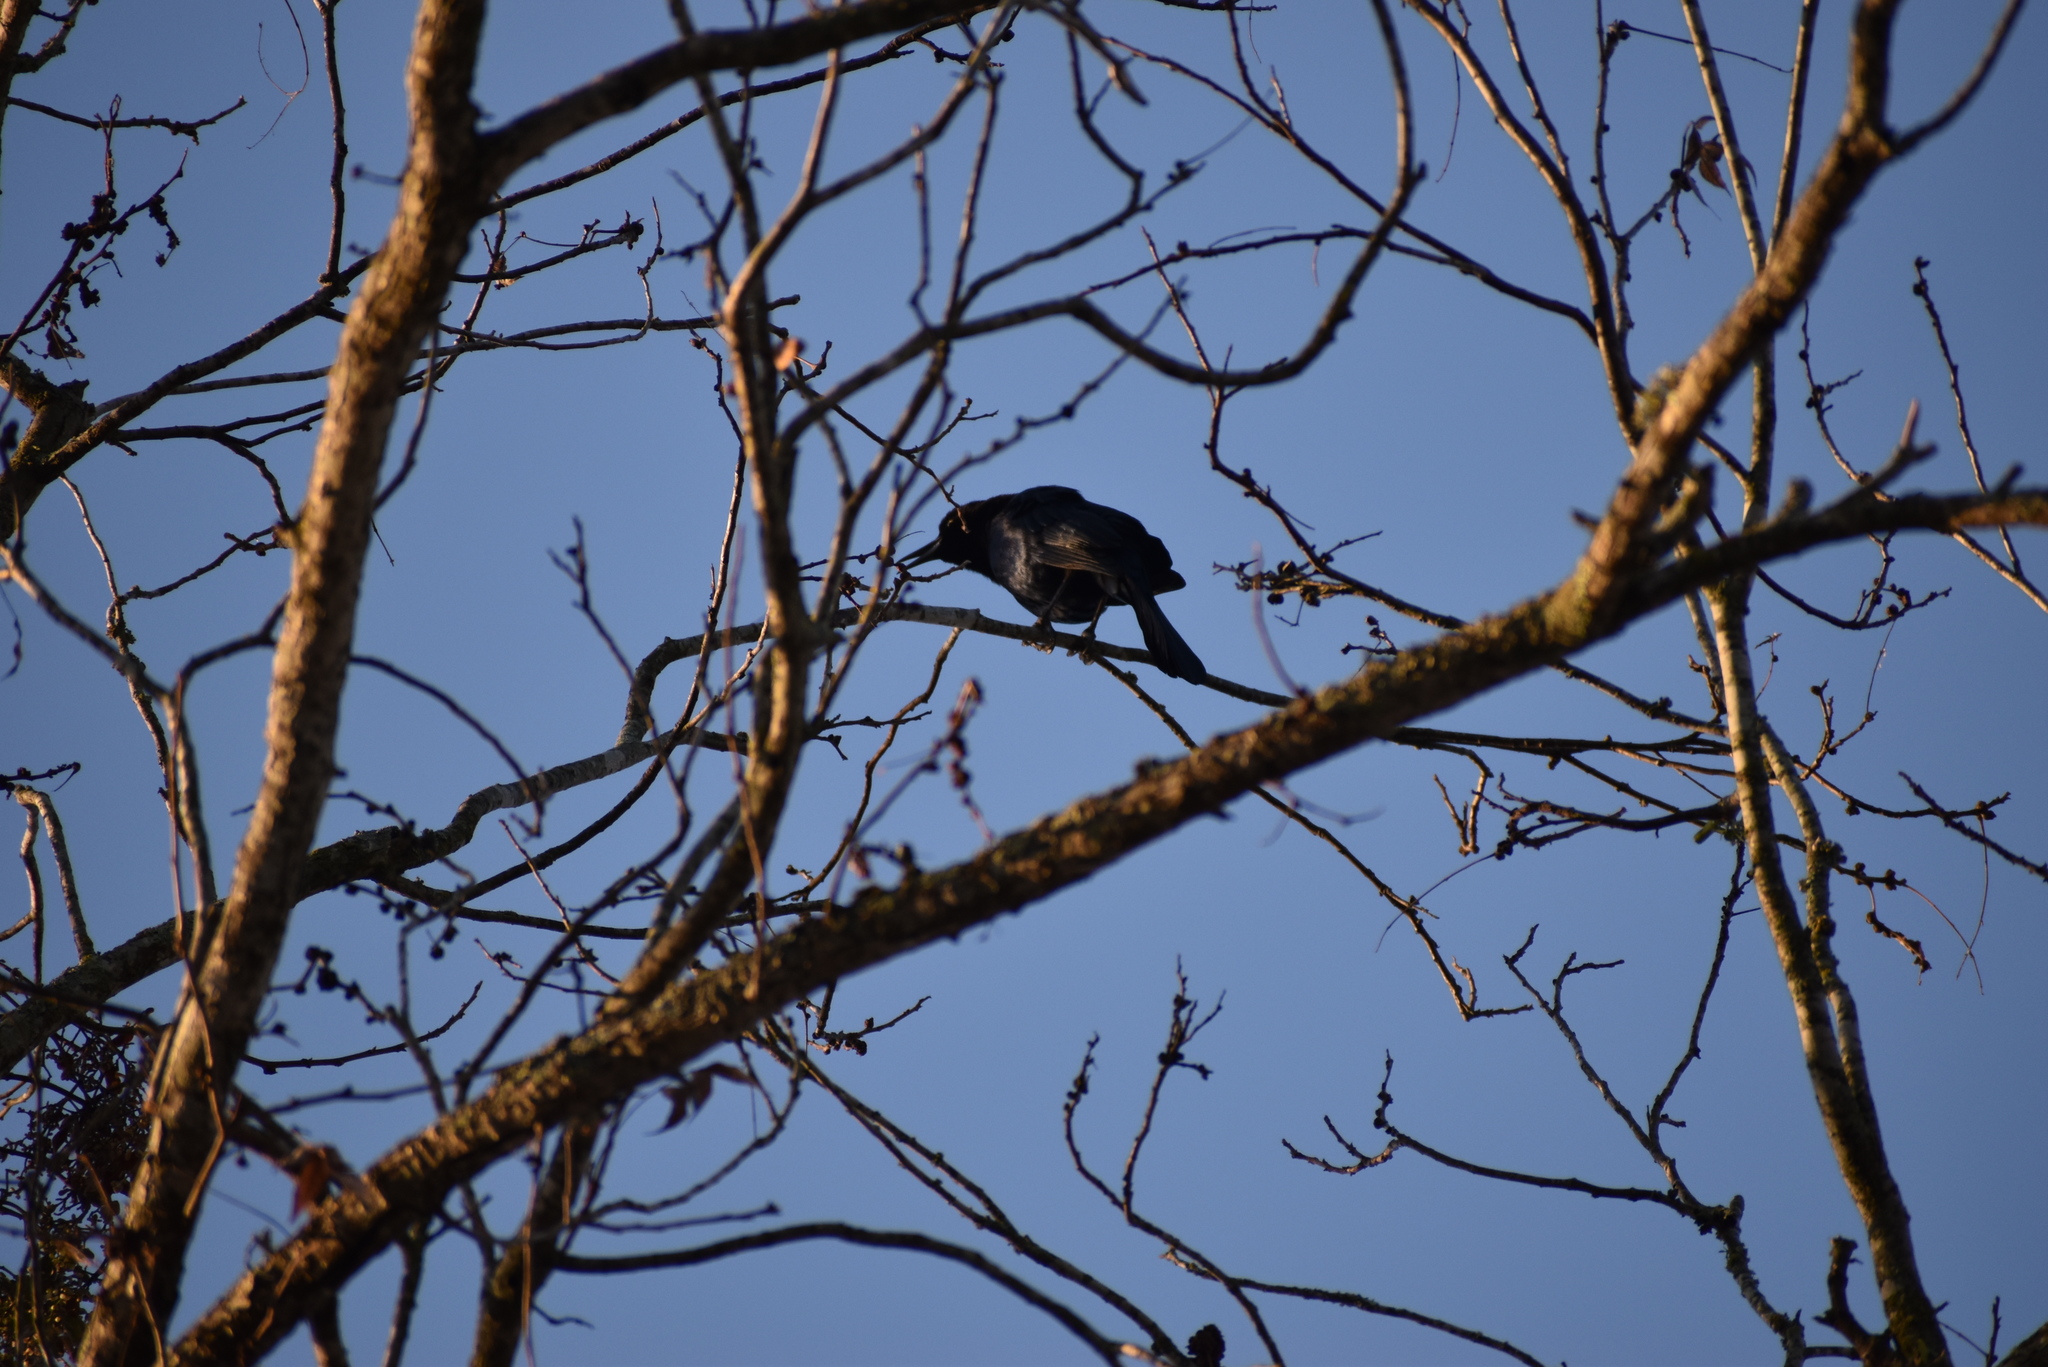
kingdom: Animalia
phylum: Chordata
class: Aves
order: Passeriformes
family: Icteridae
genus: Quiscalus
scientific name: Quiscalus mexicanus
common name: Great-tailed grackle
